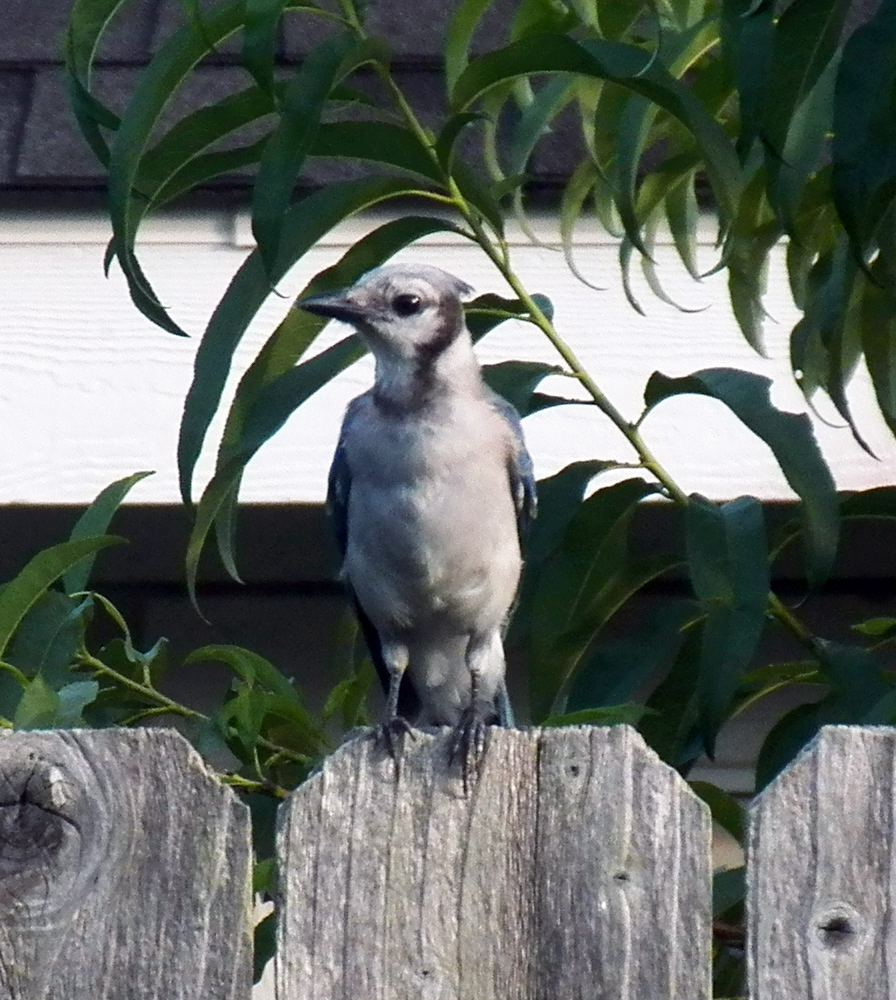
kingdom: Animalia
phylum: Chordata
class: Aves
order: Passeriformes
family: Corvidae
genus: Cyanocitta
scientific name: Cyanocitta cristata
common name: Blue jay
